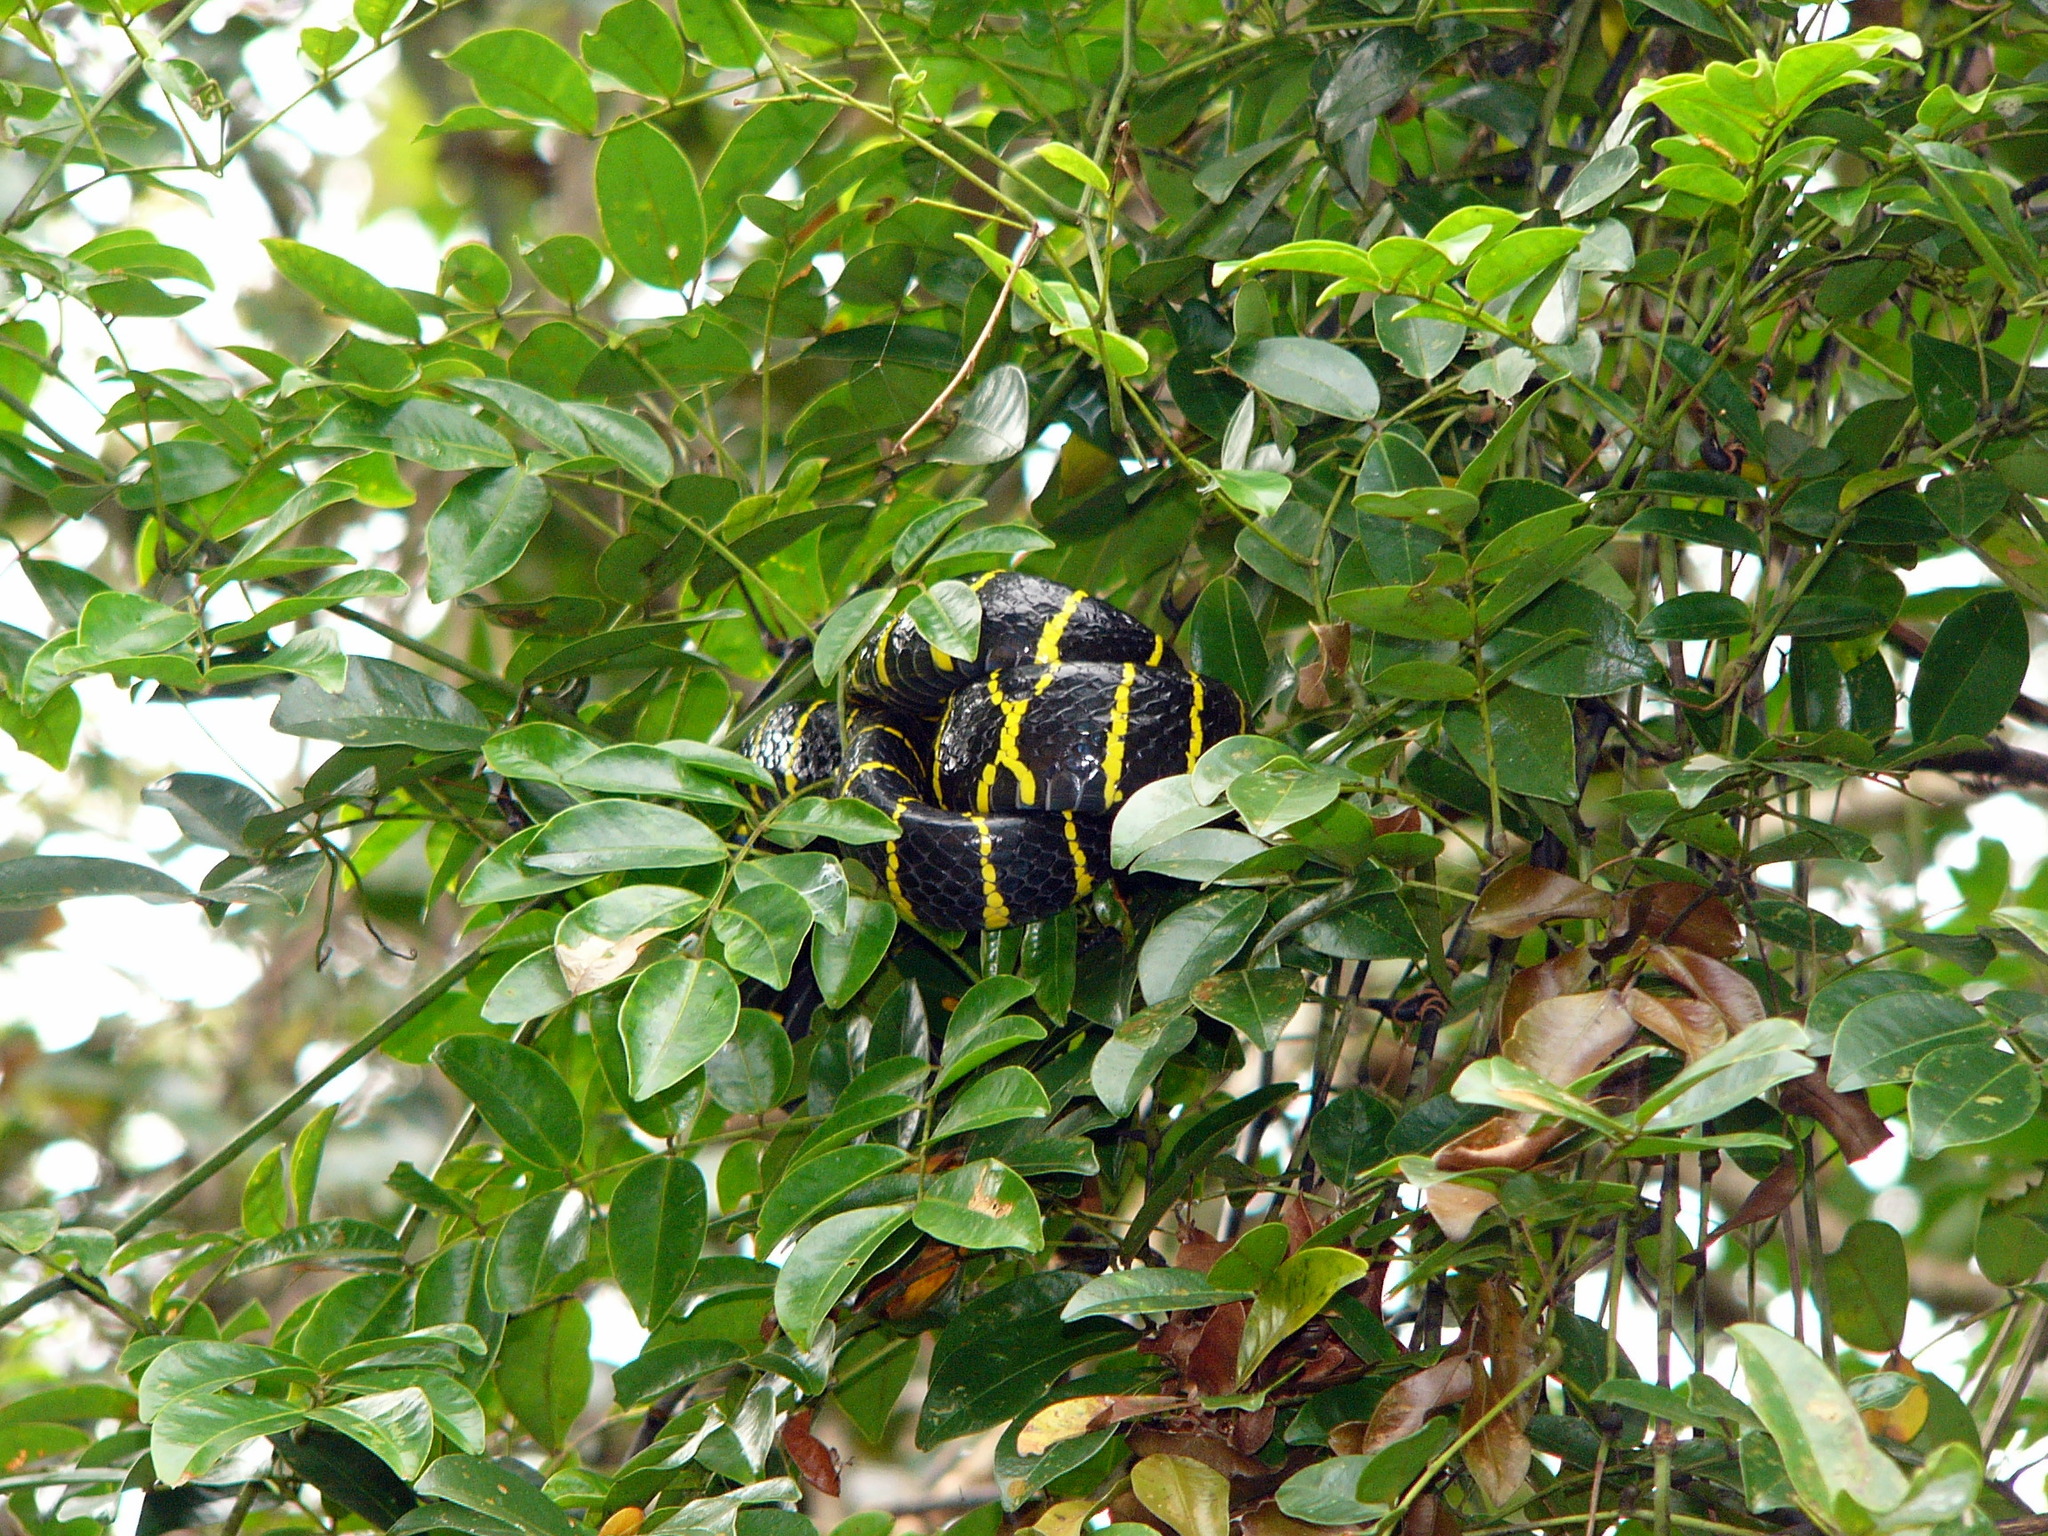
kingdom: Animalia
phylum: Chordata
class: Squamata
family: Colubridae
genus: Boiga
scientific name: Boiga dendrophila
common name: Gold-ringed cat snake
